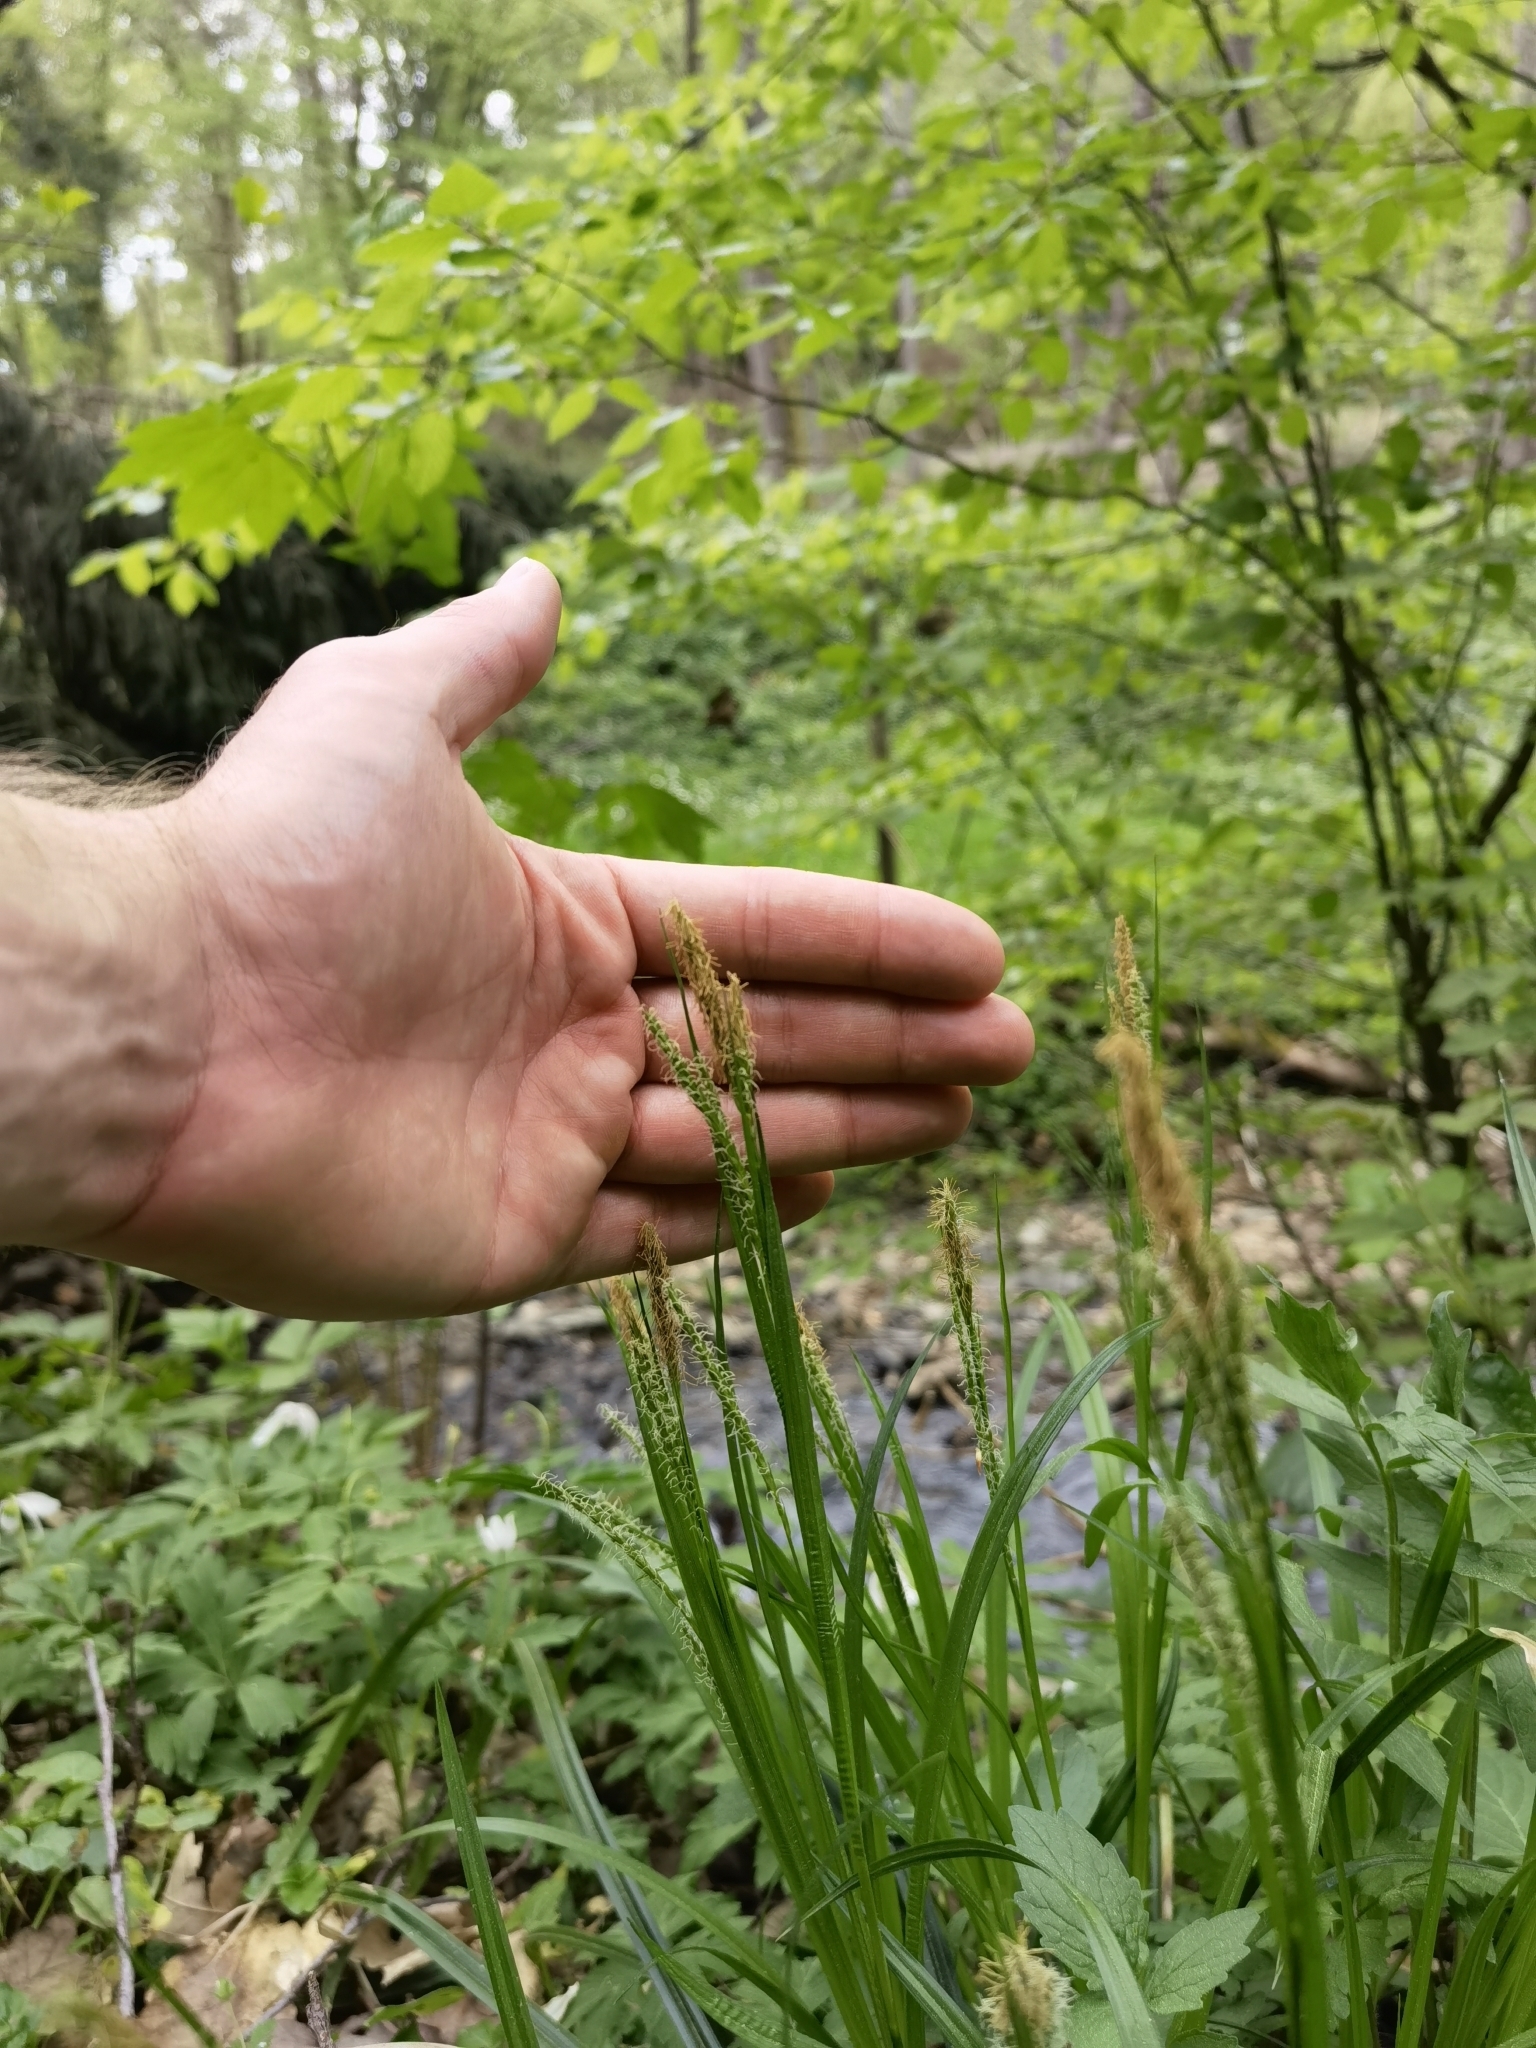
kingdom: Plantae
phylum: Tracheophyta
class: Liliopsida
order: Poales
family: Cyperaceae
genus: Carex
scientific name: Carex sylvatica
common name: Wood-sedge
